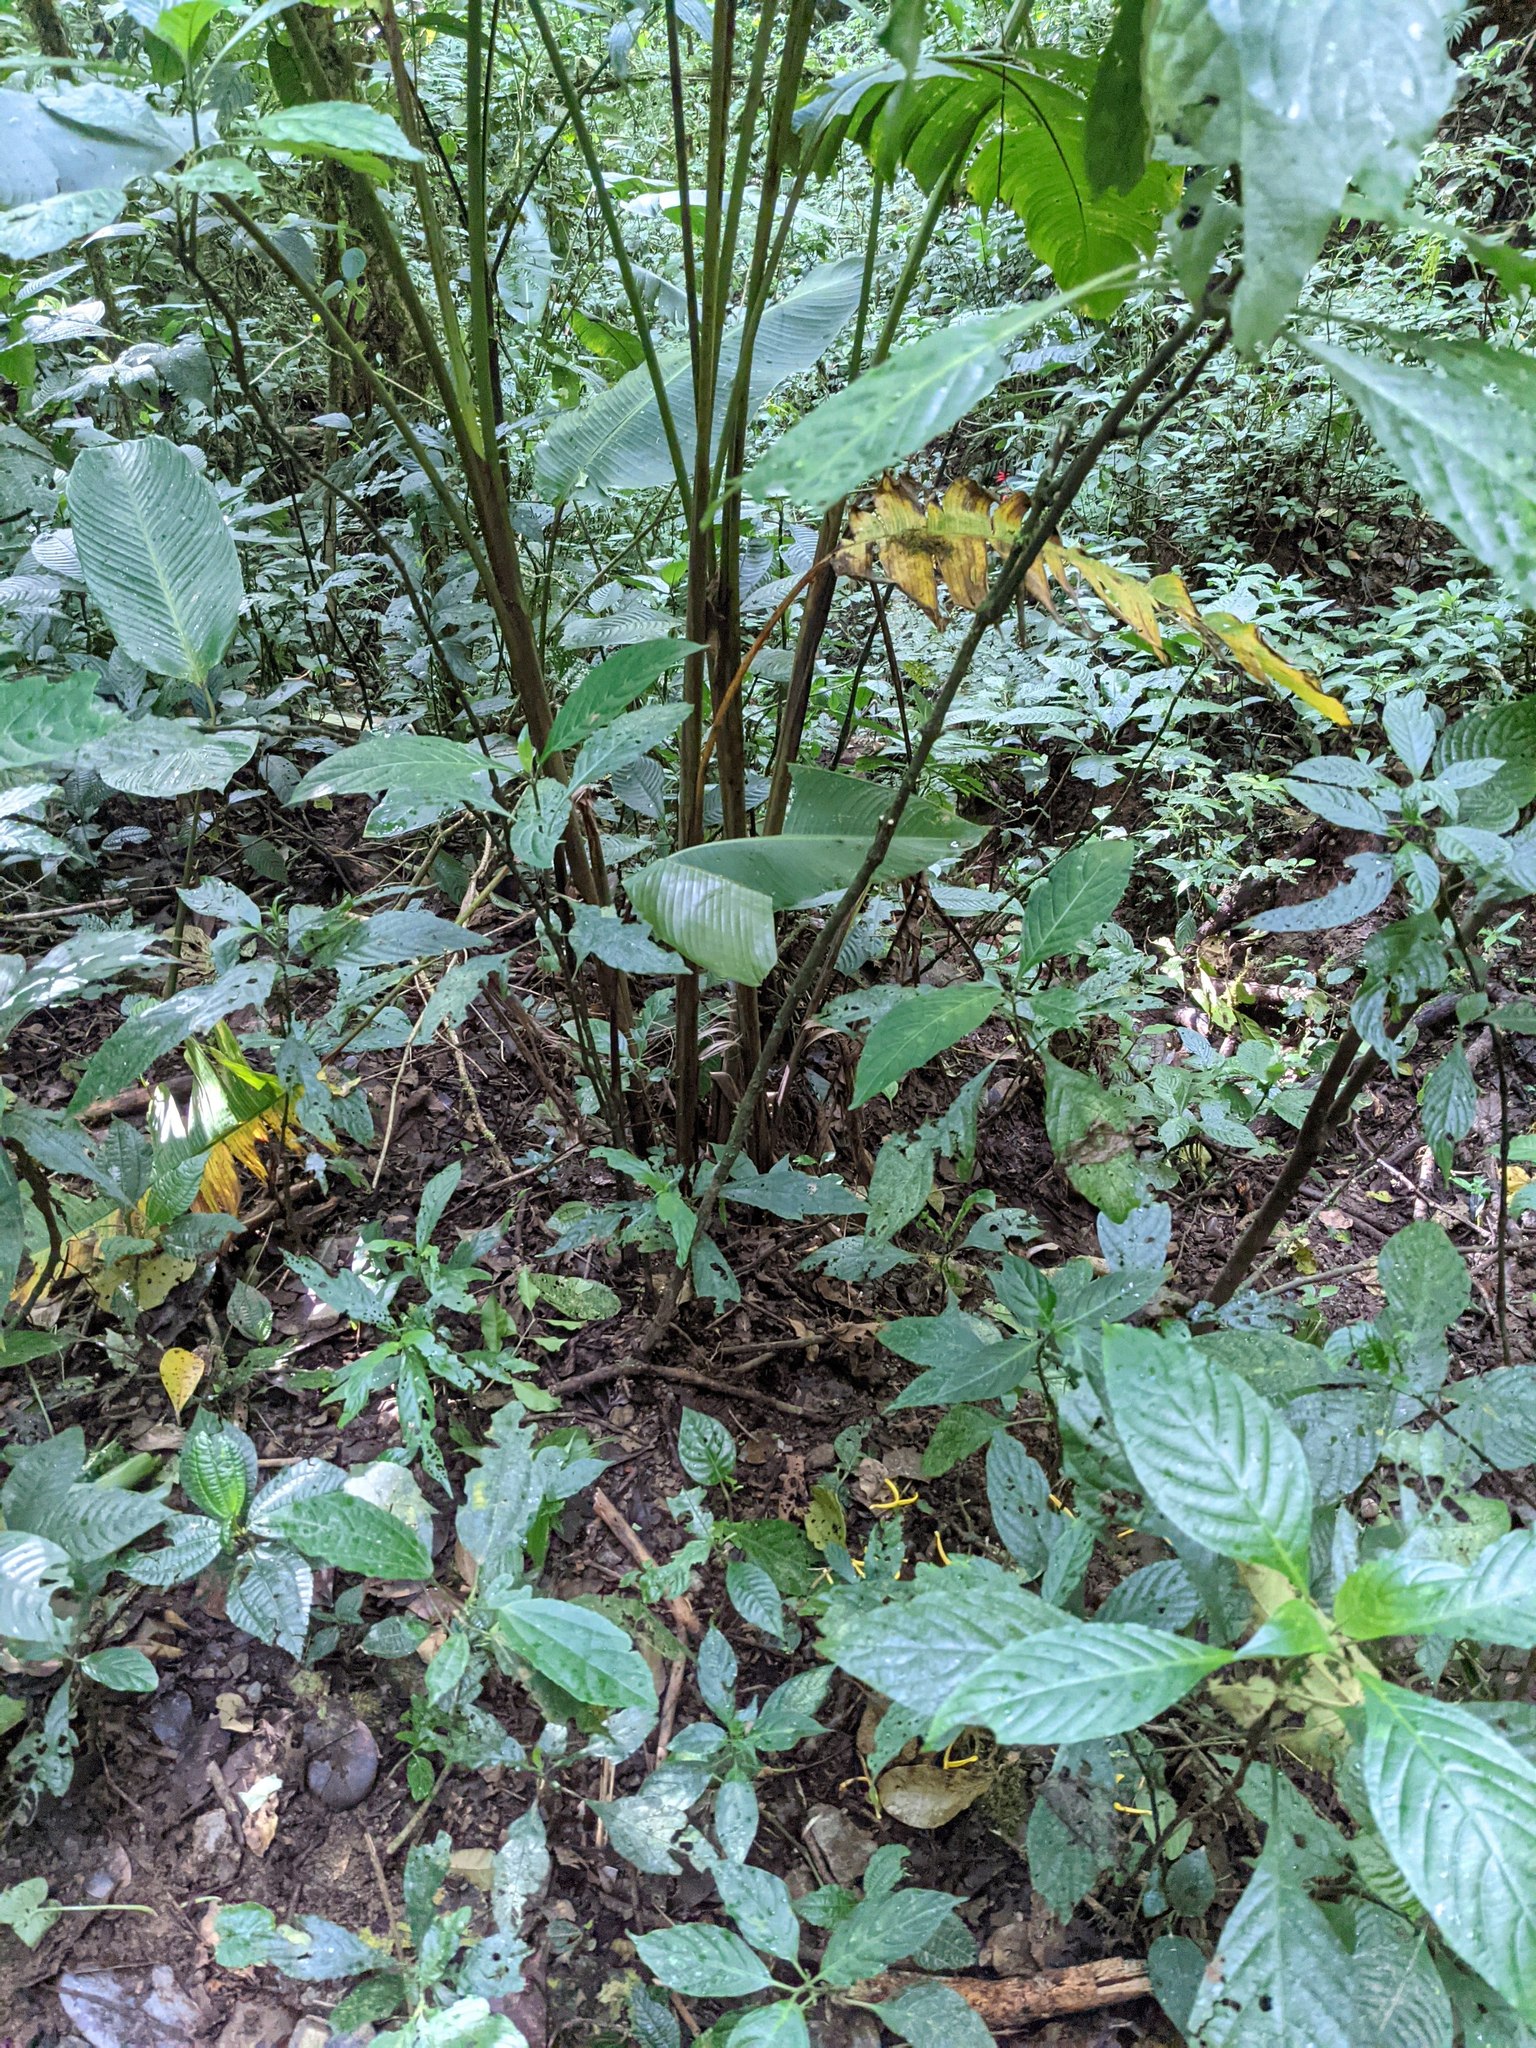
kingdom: Plantae
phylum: Tracheophyta
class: Magnoliopsida
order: Lamiales
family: Acanthaceae
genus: Justicia
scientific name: Justicia aurea
